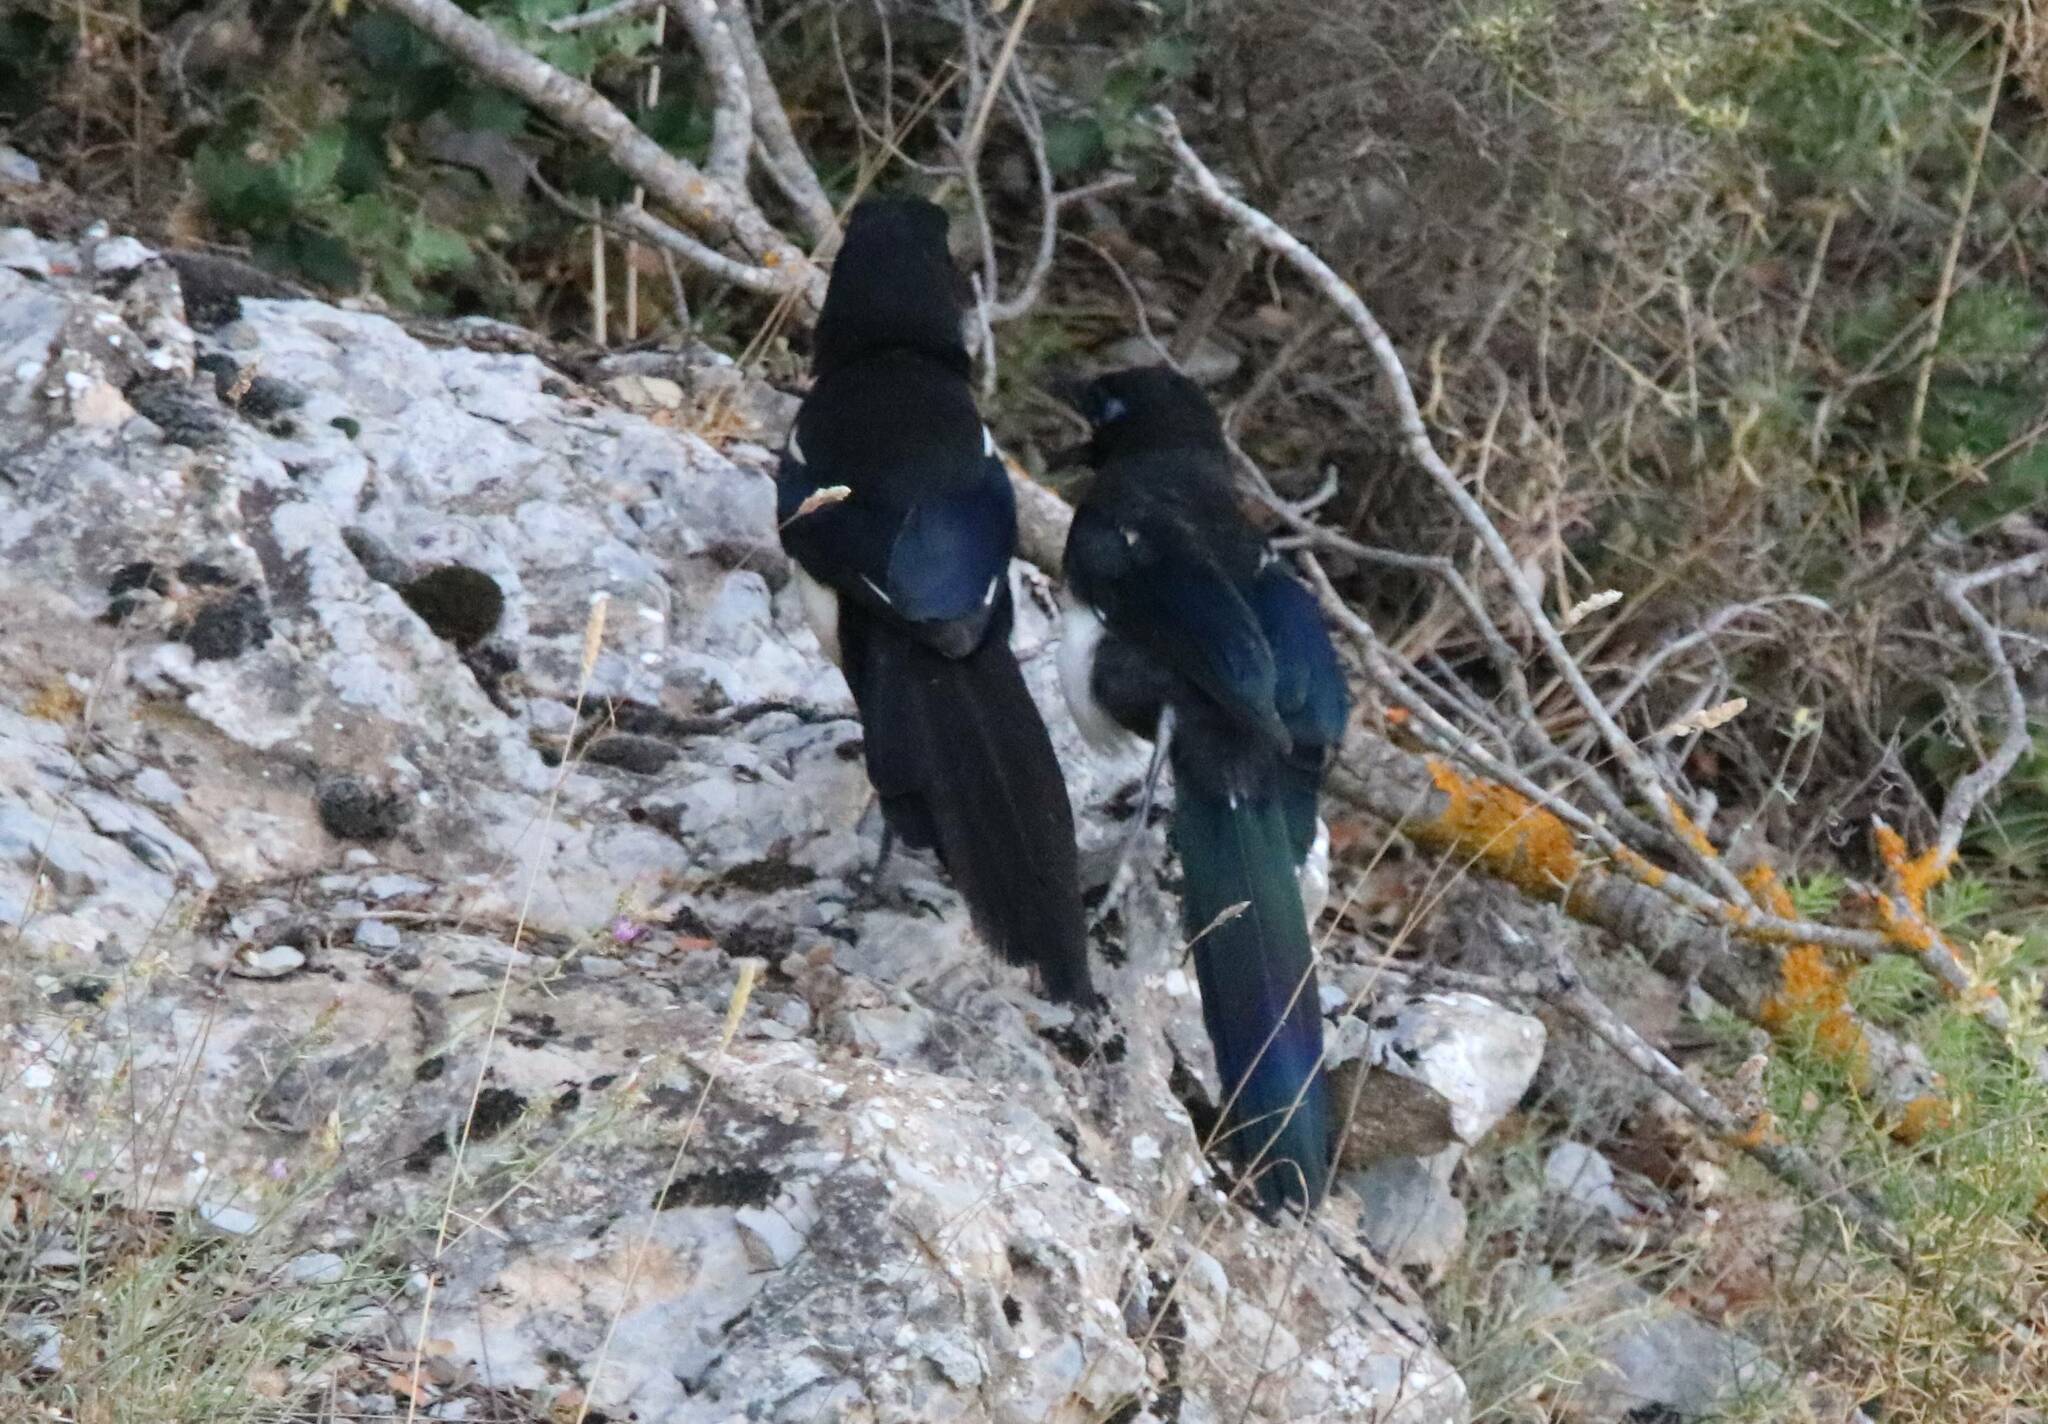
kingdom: Animalia
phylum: Chordata
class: Aves
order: Passeriformes
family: Corvidae
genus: Pica
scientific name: Pica mauritanica
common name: Maghreb magpie
